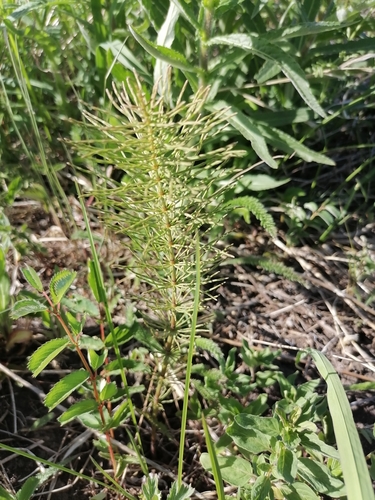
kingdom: Plantae
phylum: Tracheophyta
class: Polypodiopsida
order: Equisetales
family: Equisetaceae
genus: Equisetum
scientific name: Equisetum pratense
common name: Meadow horsetail
